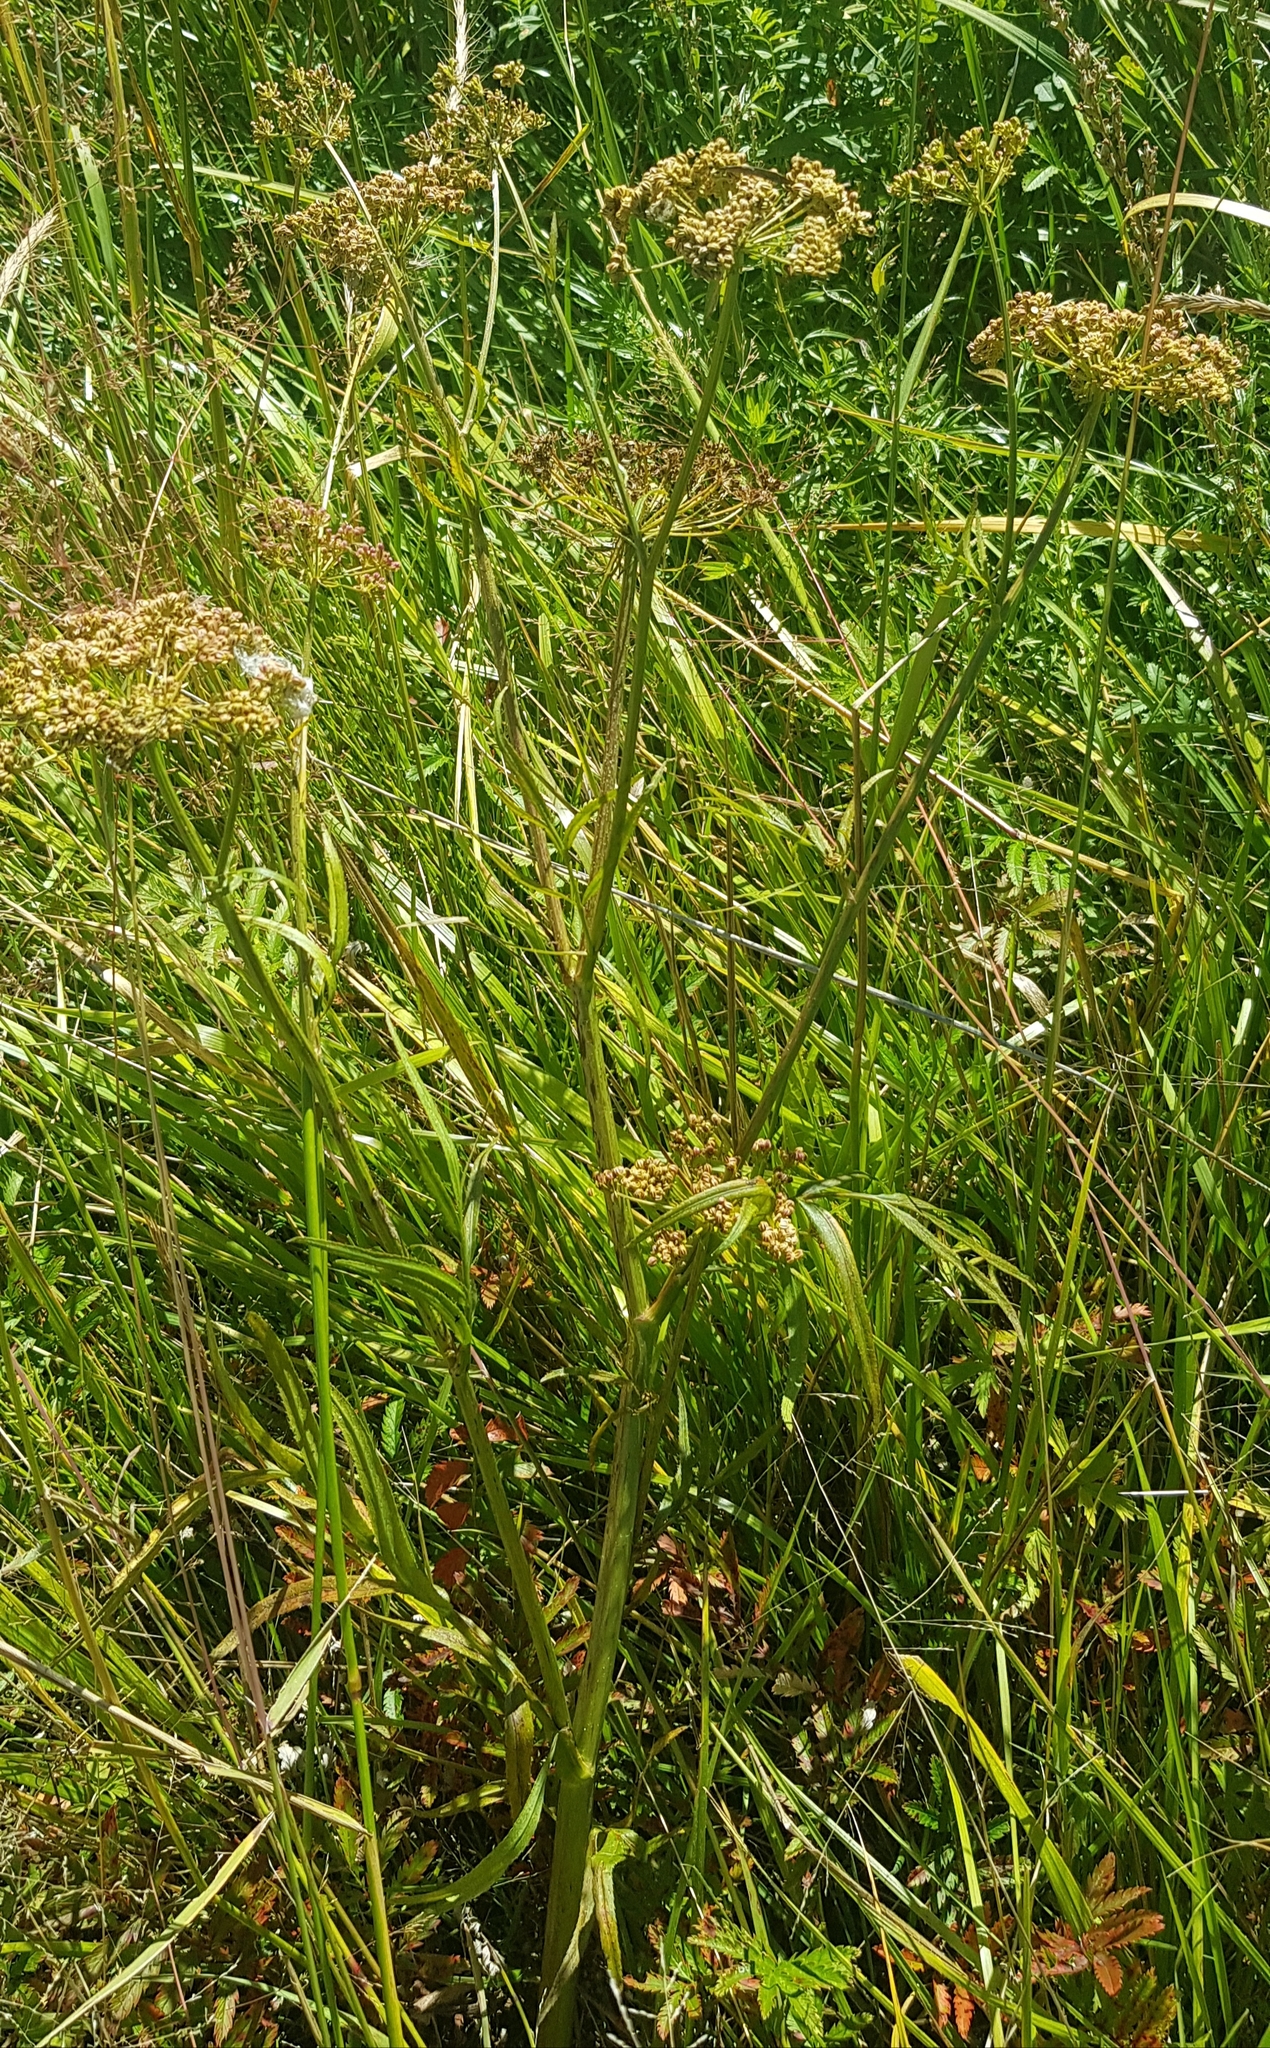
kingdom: Plantae
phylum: Tracheophyta
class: Magnoliopsida
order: Apiales
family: Apiaceae
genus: Sium
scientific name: Sium suave
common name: Hemlock water-parsnip
